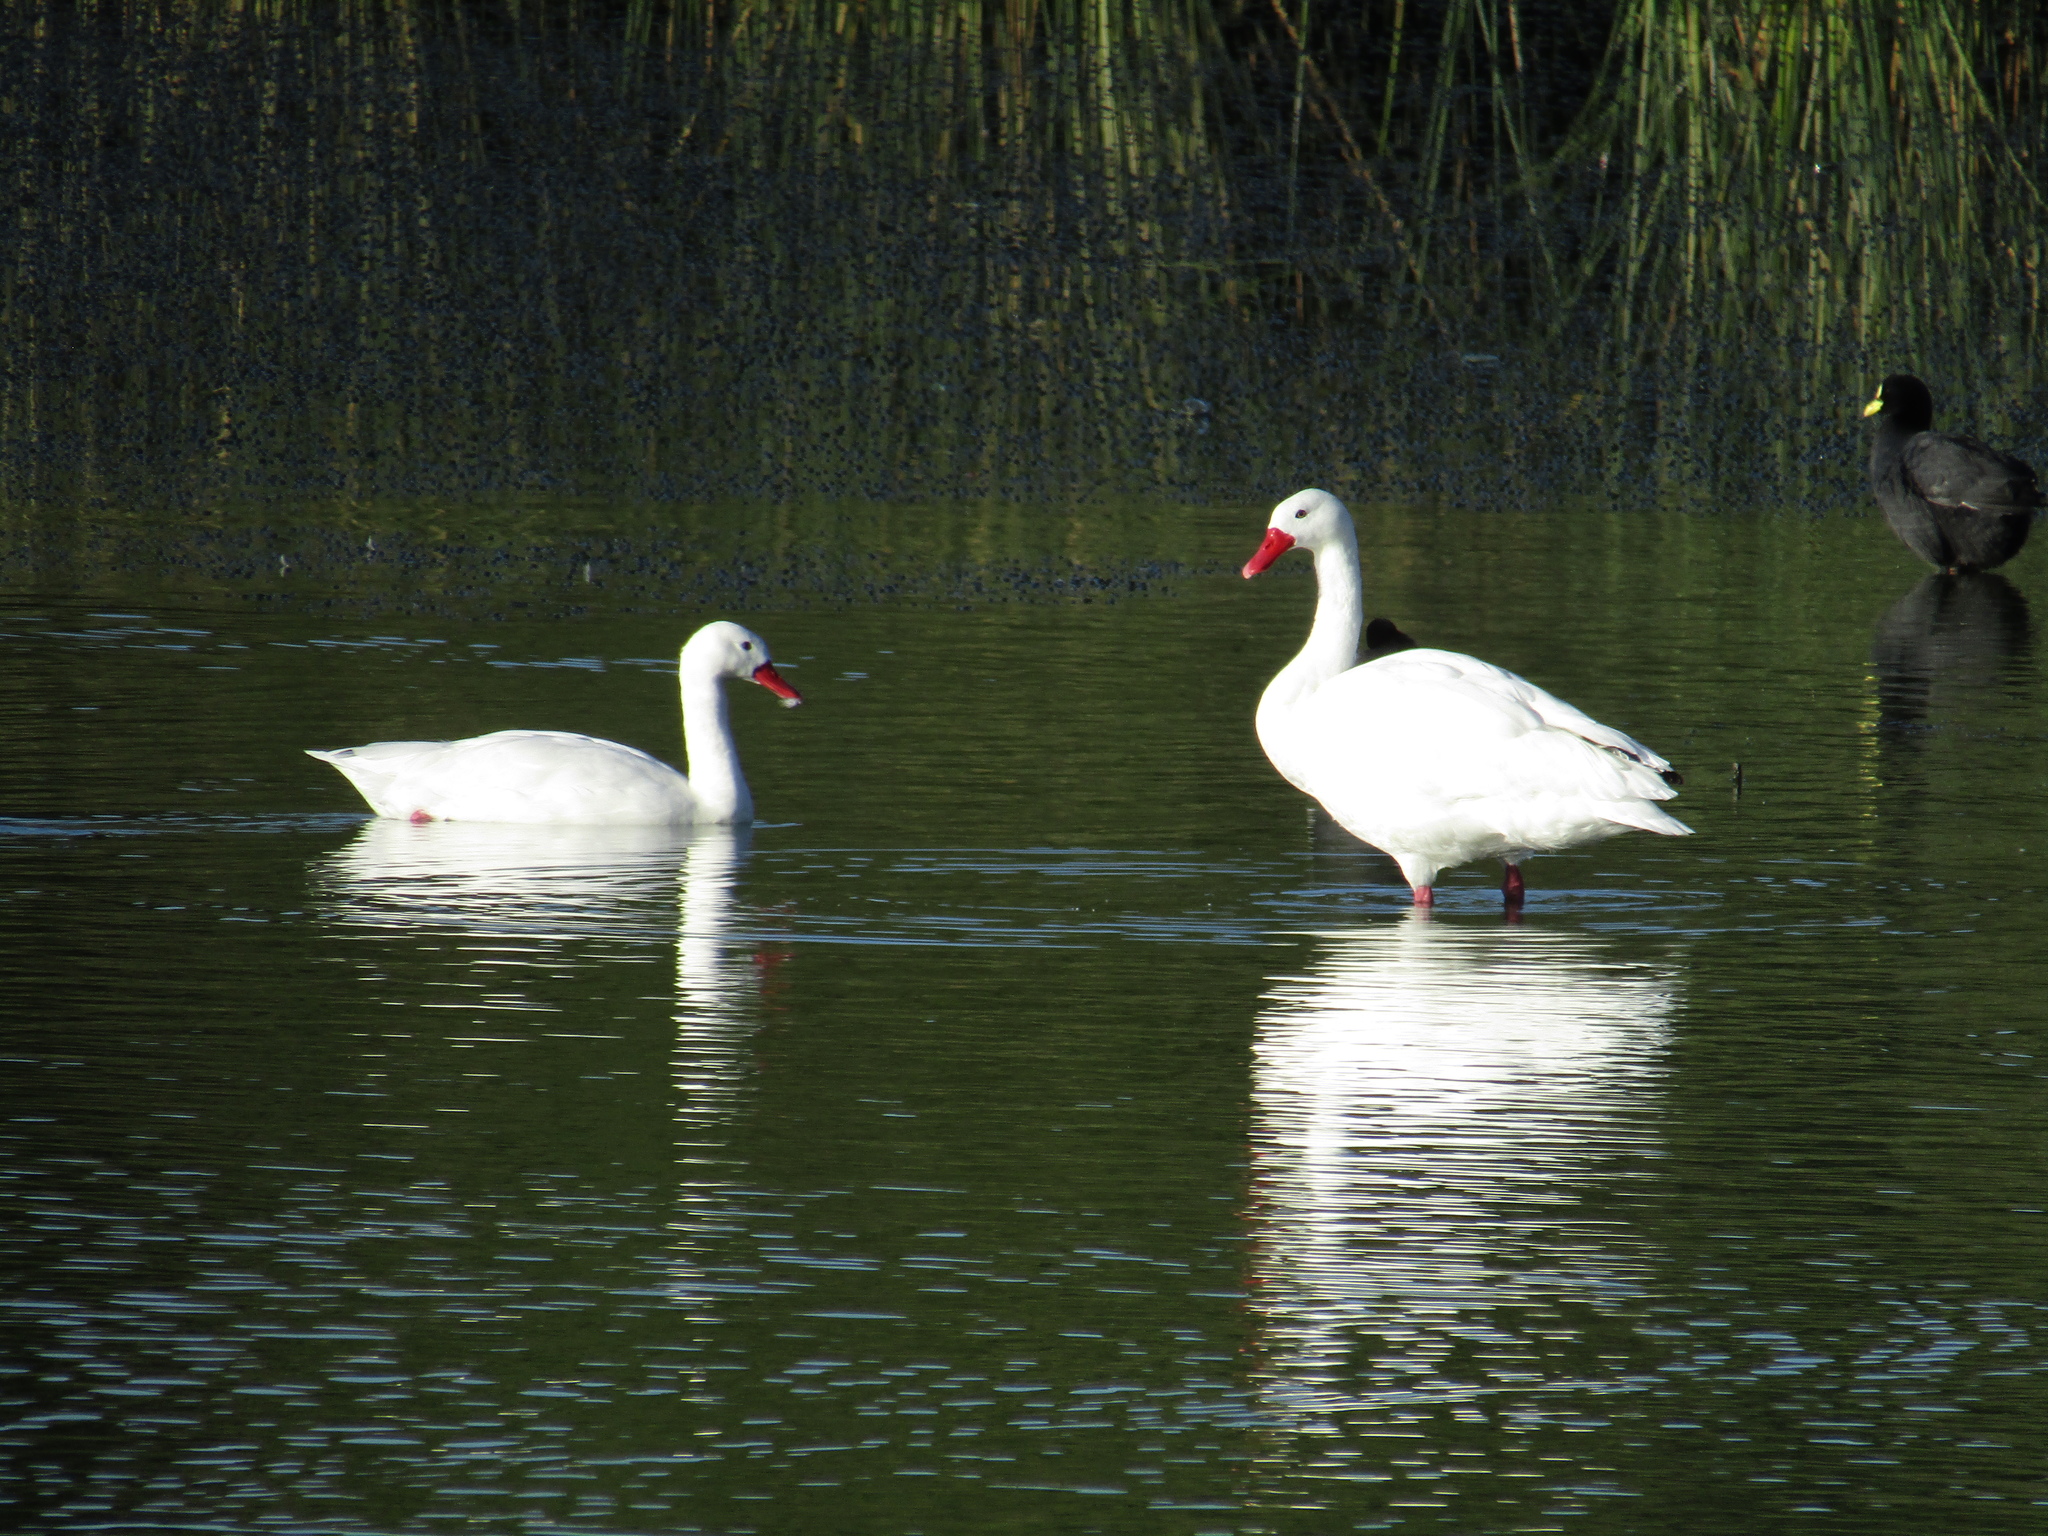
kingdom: Animalia
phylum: Chordata
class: Aves
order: Anseriformes
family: Anatidae
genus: Coscoroba
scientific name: Coscoroba coscoroba
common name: Coscoroba swan
